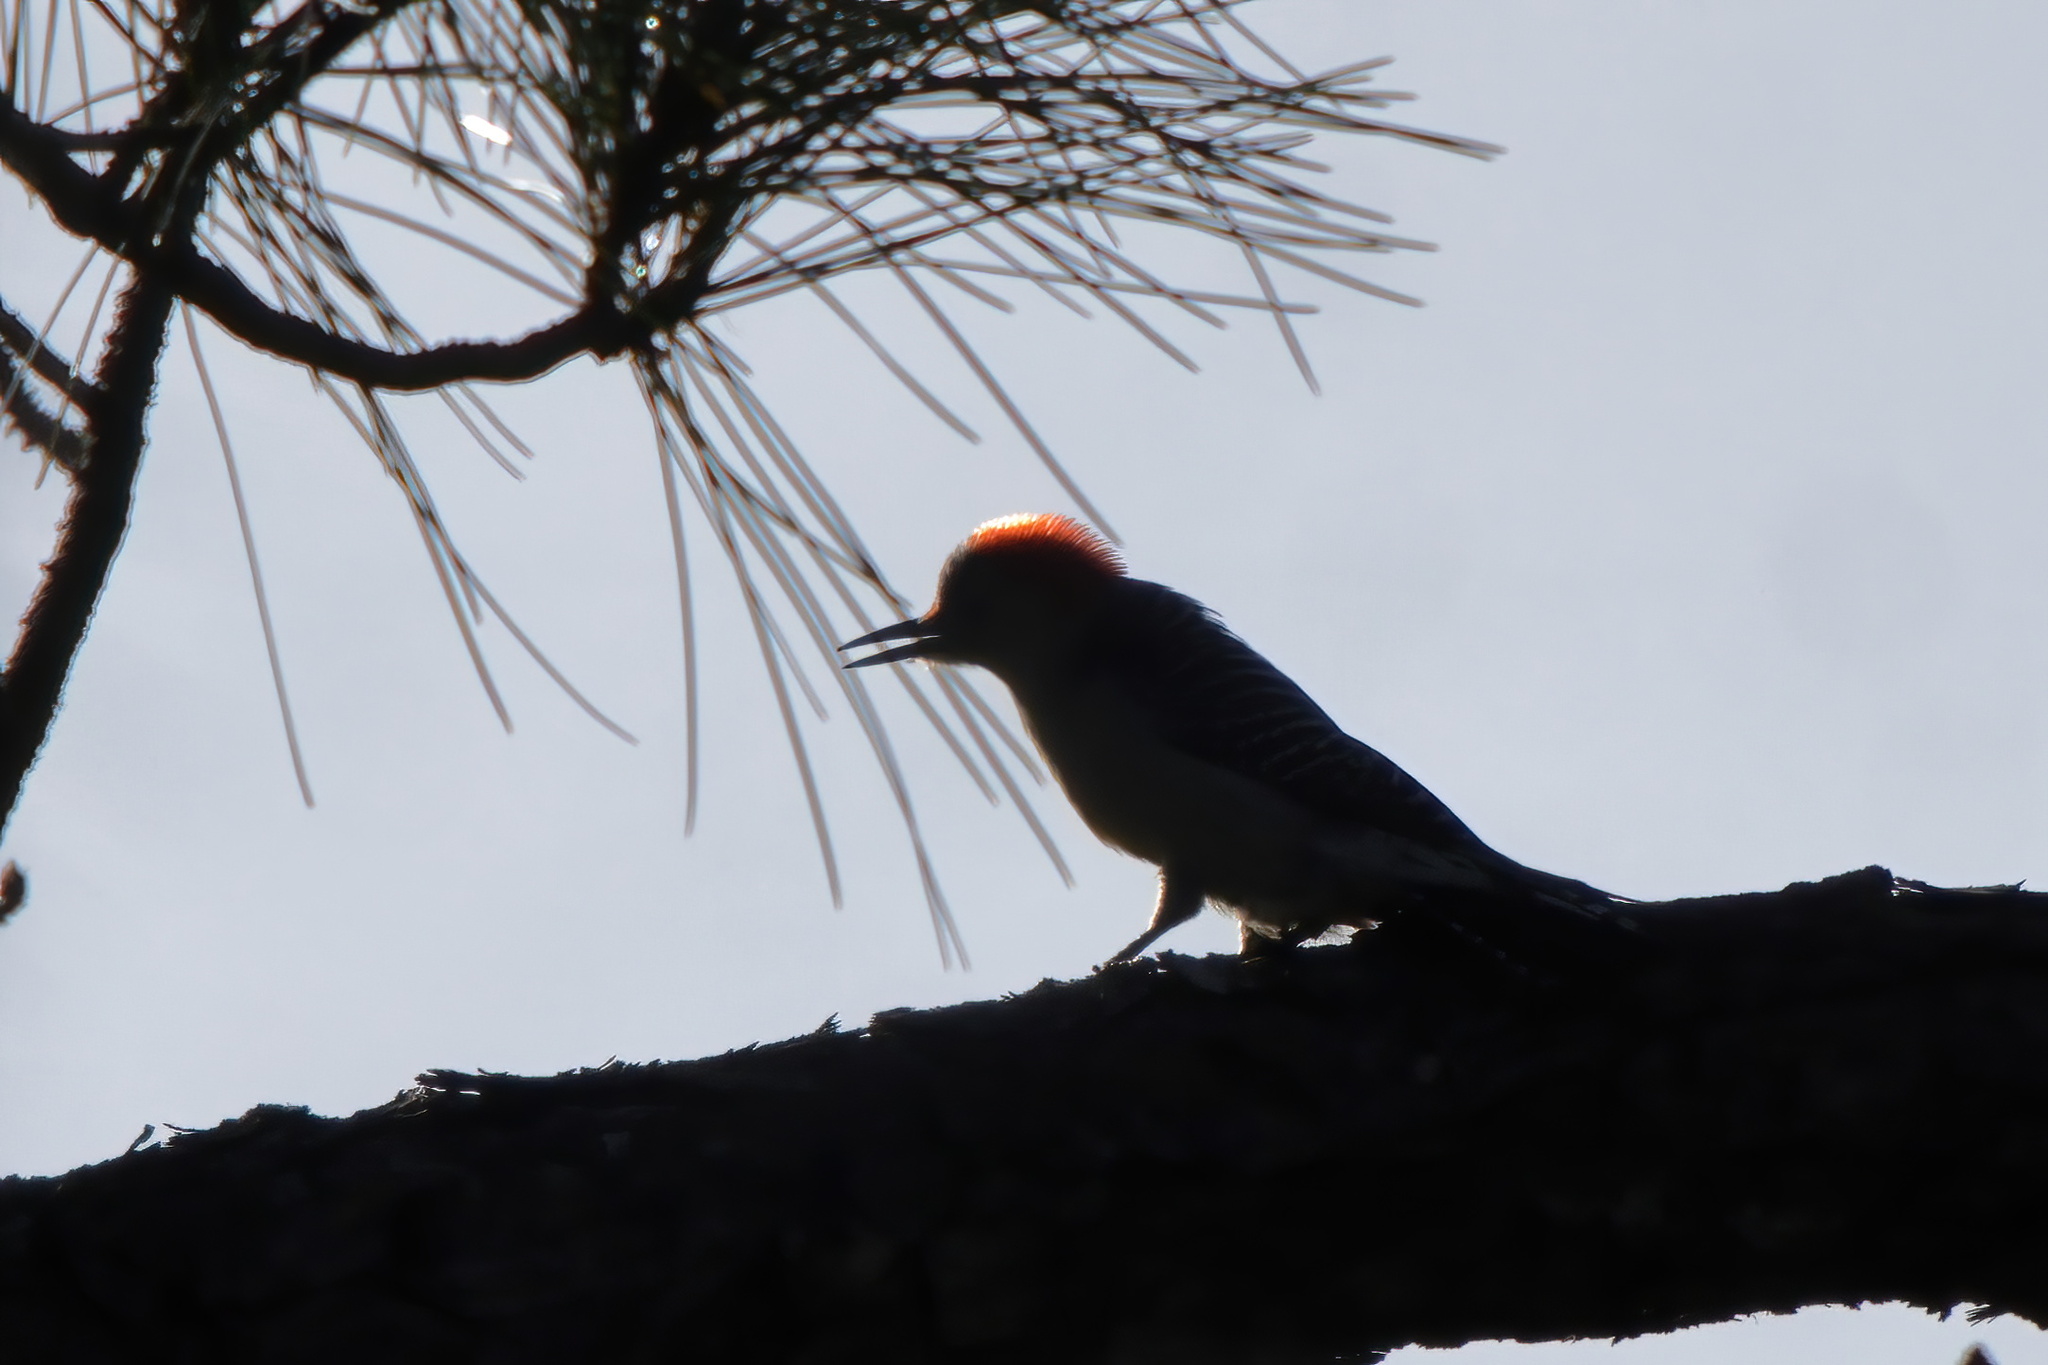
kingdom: Animalia
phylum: Chordata
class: Aves
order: Piciformes
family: Picidae
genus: Melanerpes
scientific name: Melanerpes carolinus
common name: Red-bellied woodpecker
